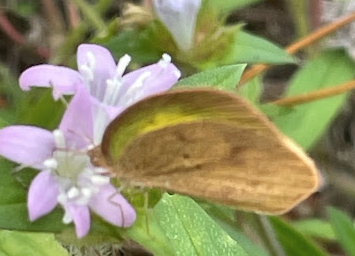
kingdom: Animalia
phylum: Arthropoda
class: Insecta
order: Lepidoptera
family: Pieridae
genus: Eurema
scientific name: Eurema daira
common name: Barred sulphur
